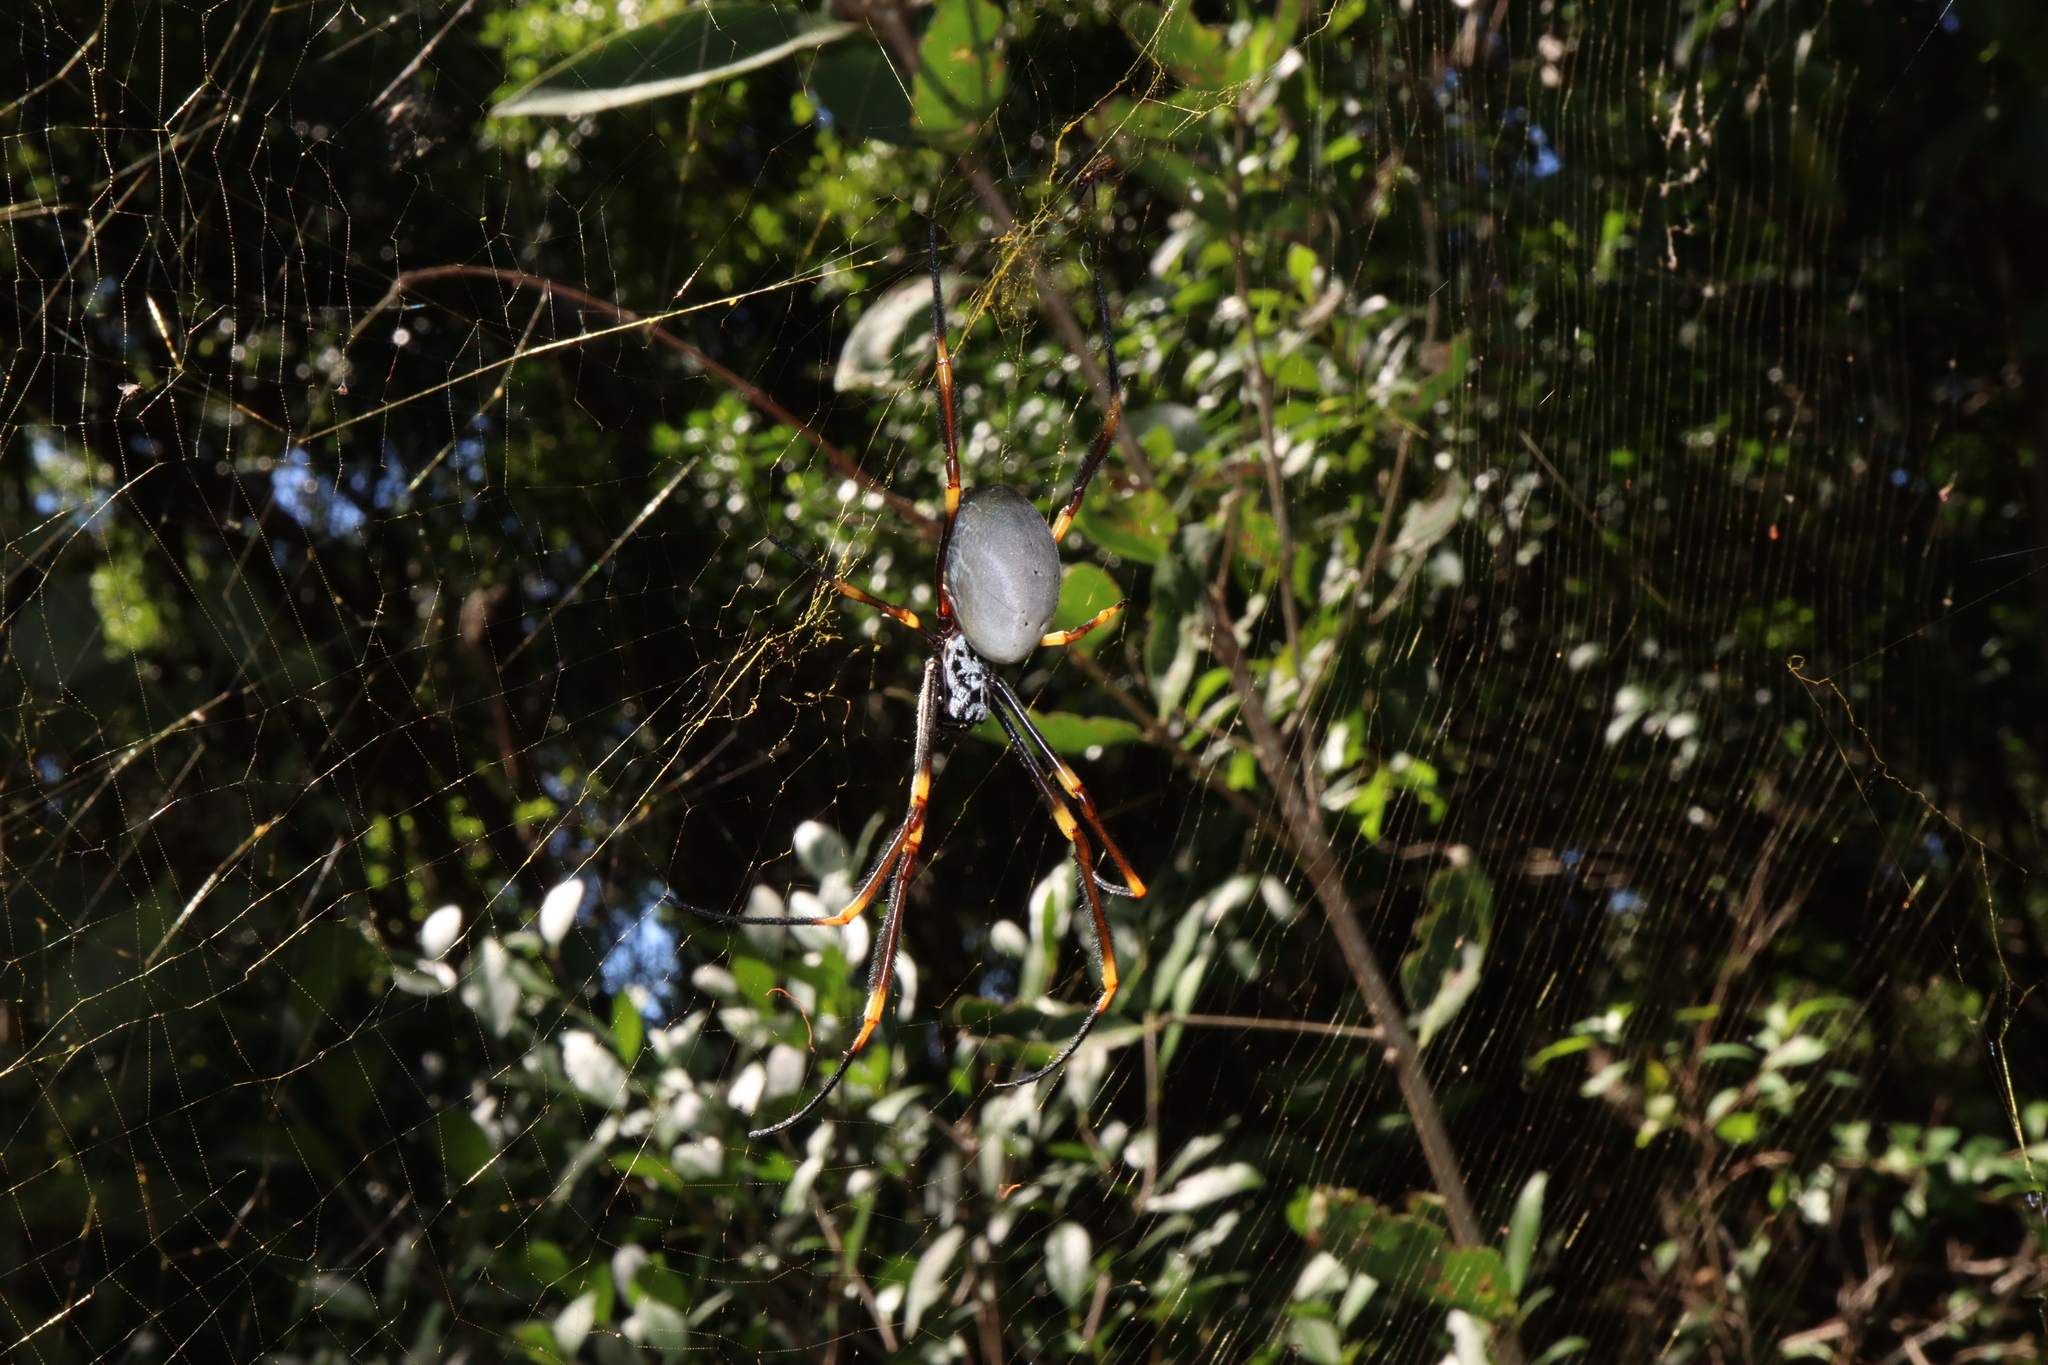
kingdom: Animalia
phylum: Arthropoda
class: Arachnida
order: Araneae
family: Araneidae
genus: Trichonephila
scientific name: Trichonephila plumipes
